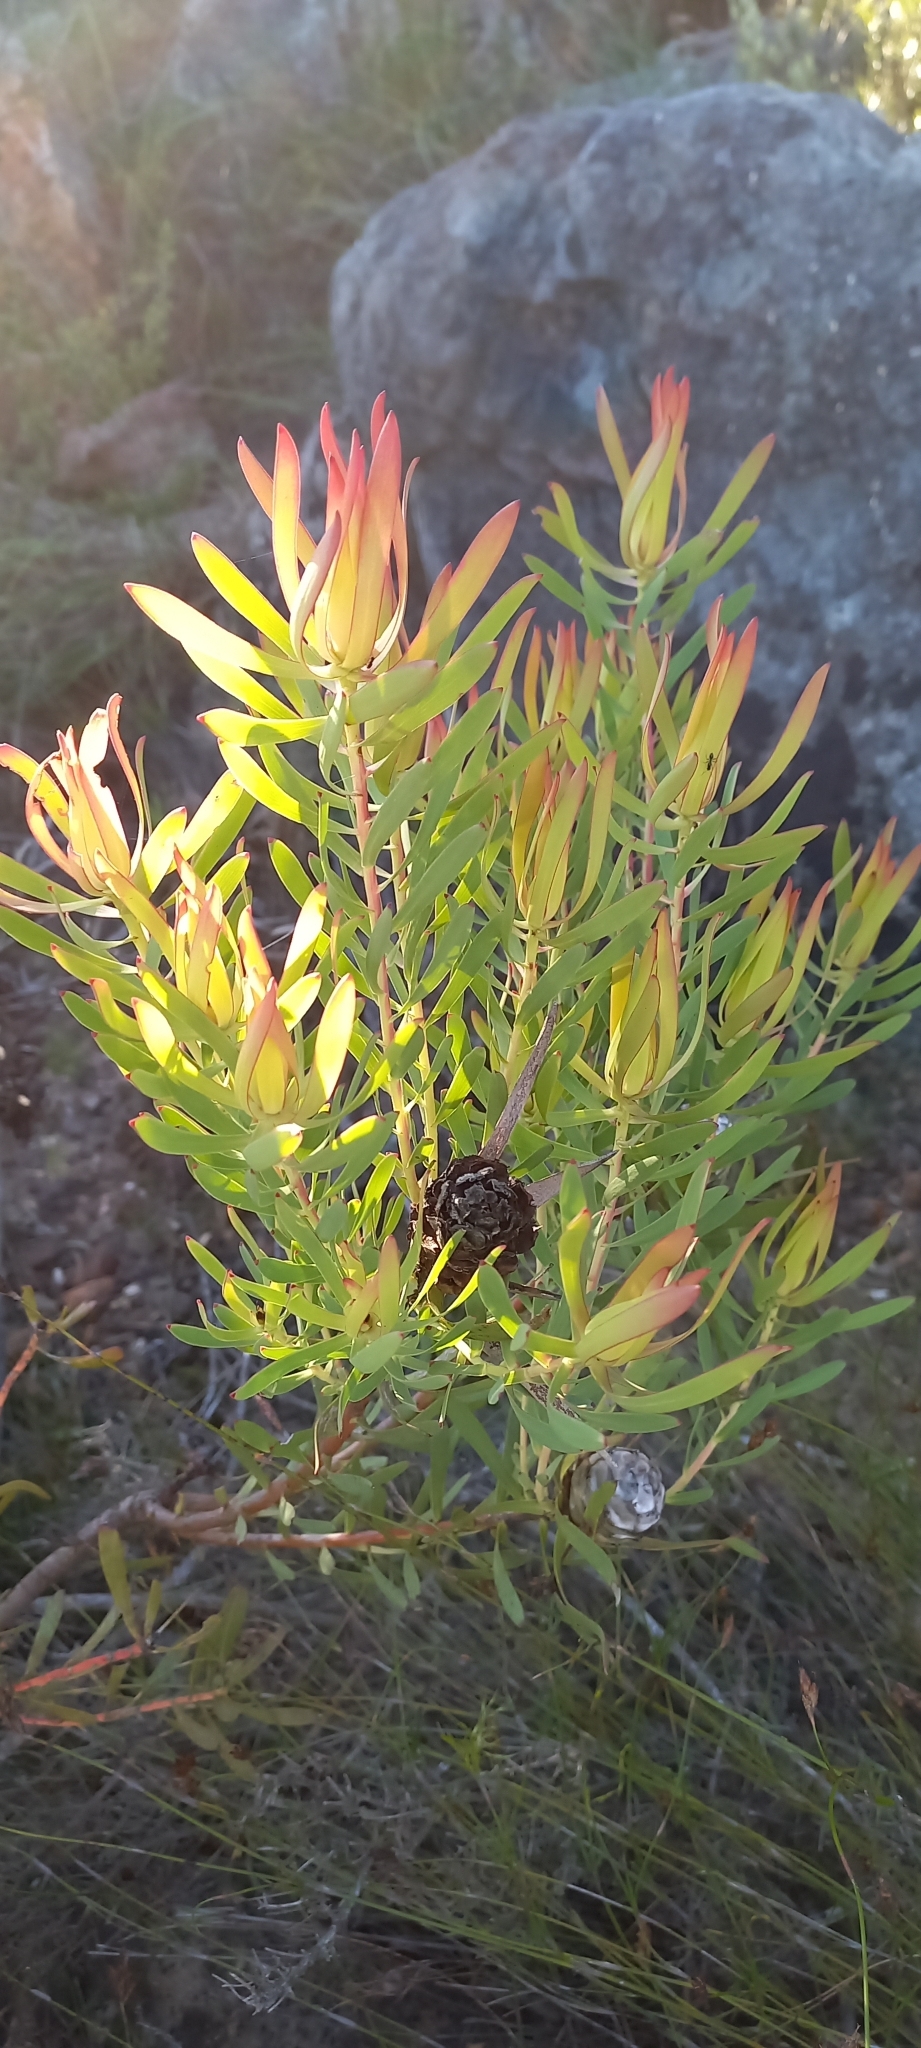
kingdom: Plantae
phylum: Tracheophyta
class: Magnoliopsida
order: Proteales
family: Proteaceae
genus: Leucadendron
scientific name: Leucadendron salignum
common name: Common sunshine conebush
